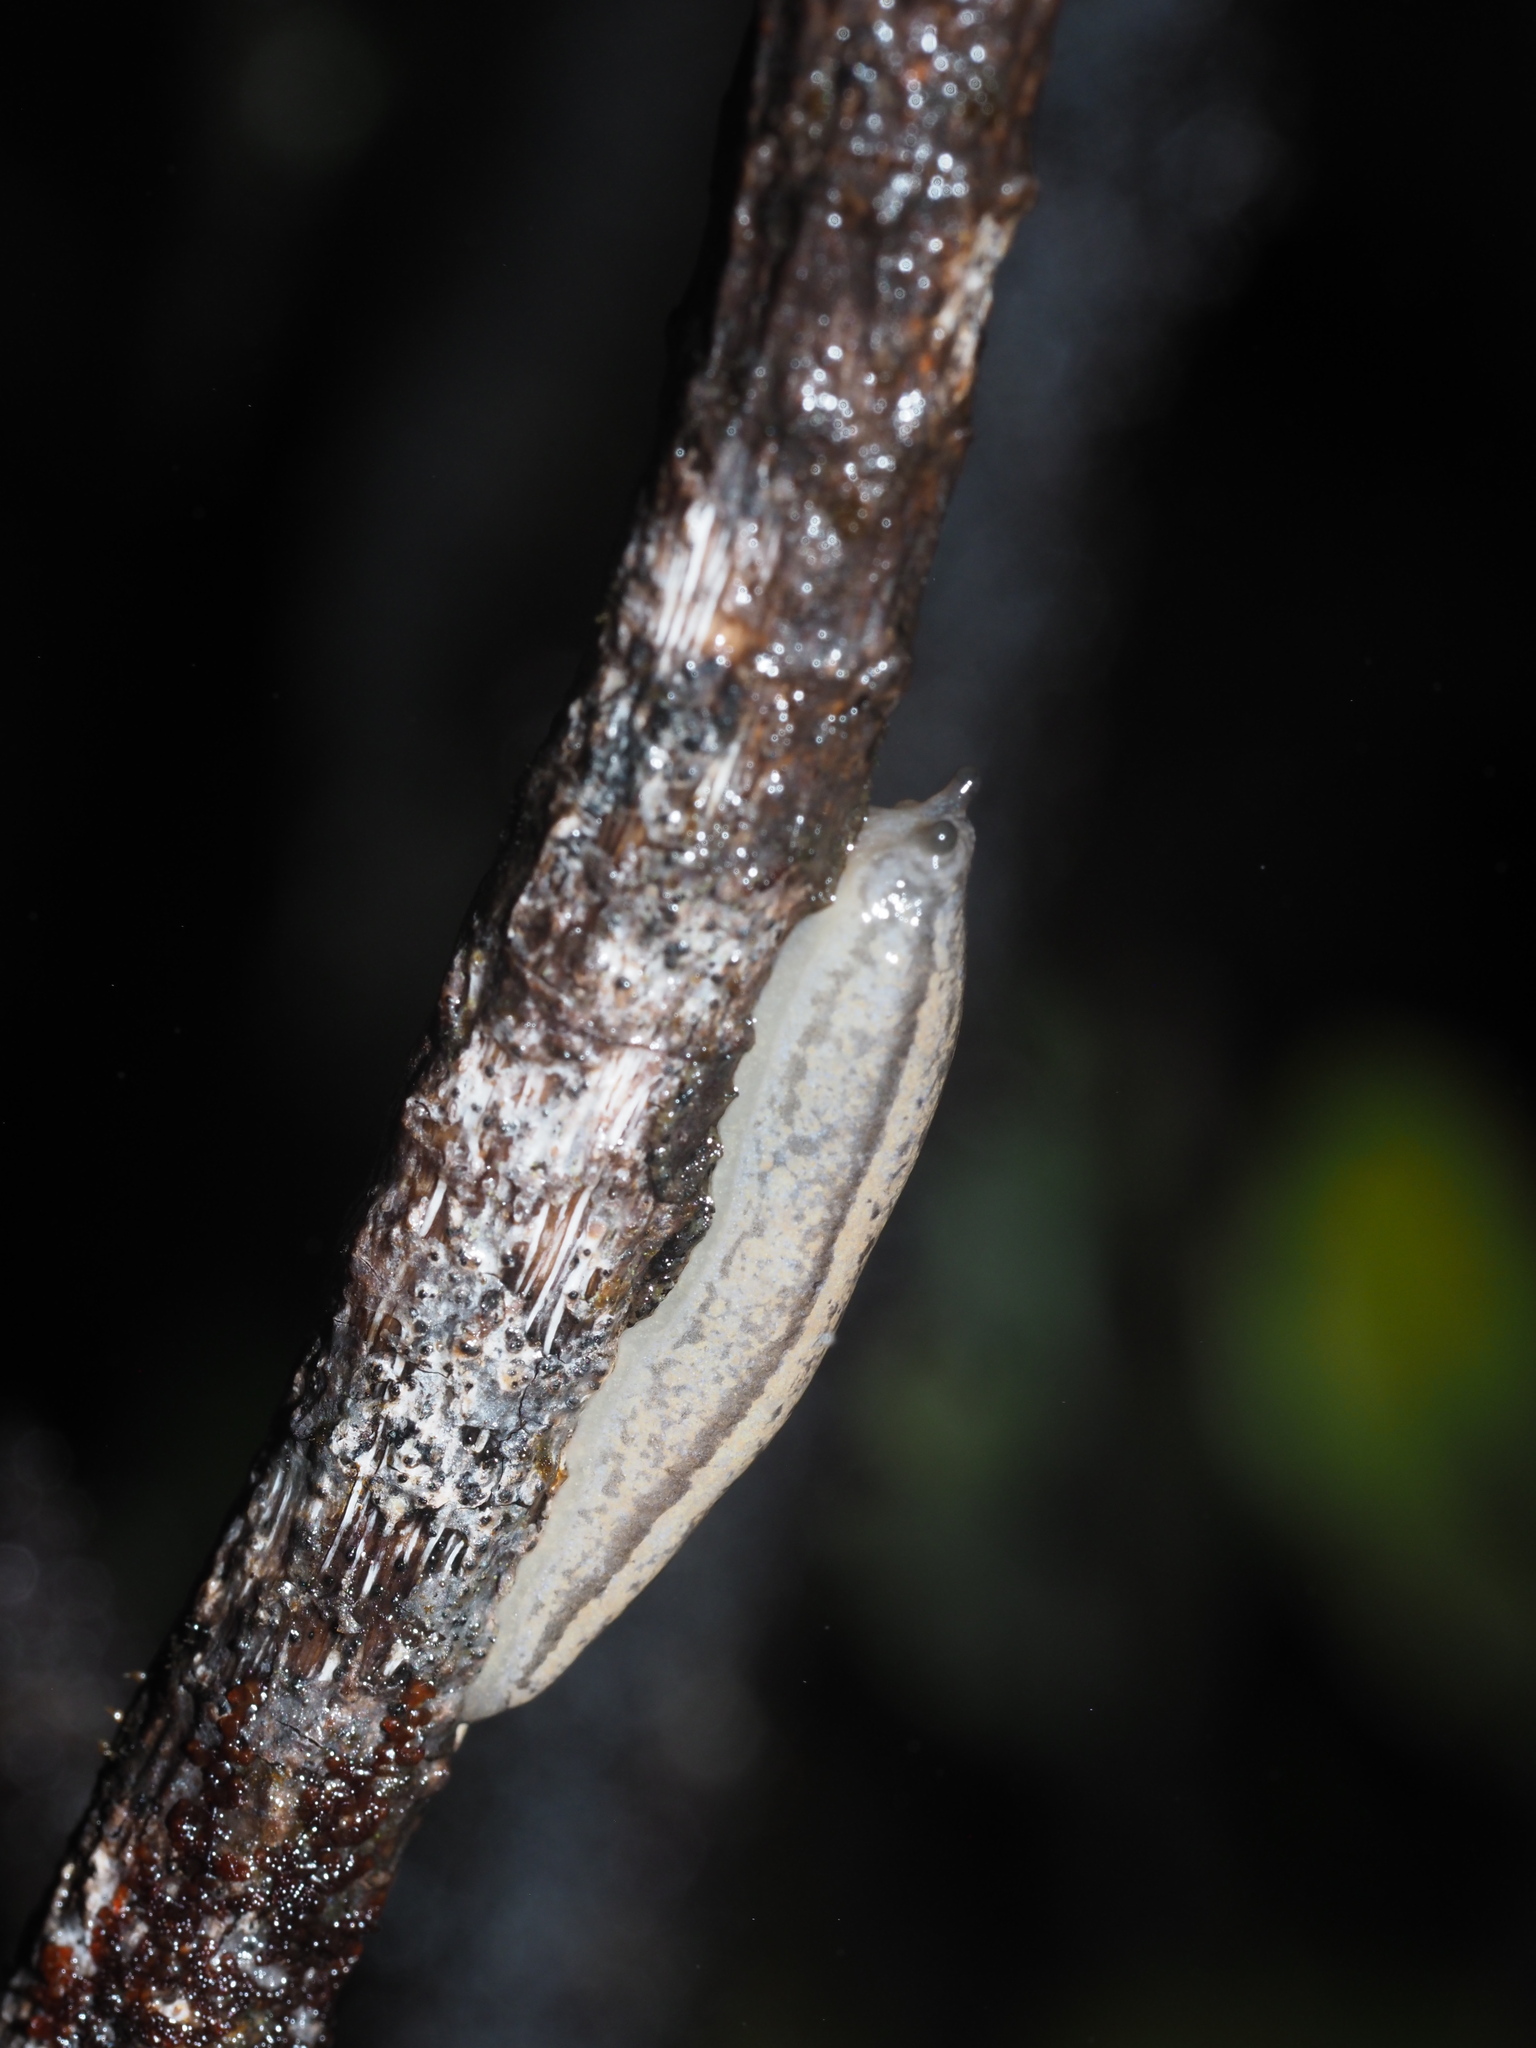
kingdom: Animalia
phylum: Mollusca
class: Gastropoda
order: Stylommatophora
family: Philomycidae
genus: Meghimatium
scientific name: Meghimatium bilineatum
